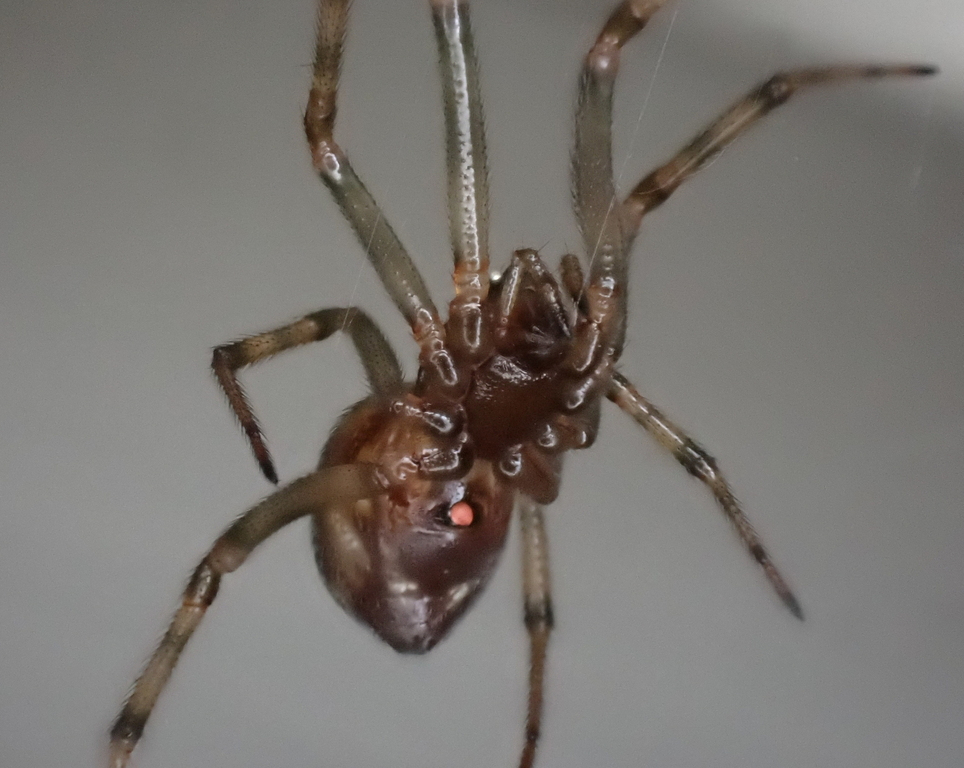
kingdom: Animalia
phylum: Arthropoda
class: Arachnida
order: Araneae
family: Theridiidae
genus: Steatoda
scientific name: Steatoda triangulosa
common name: Triangulate bud spider
